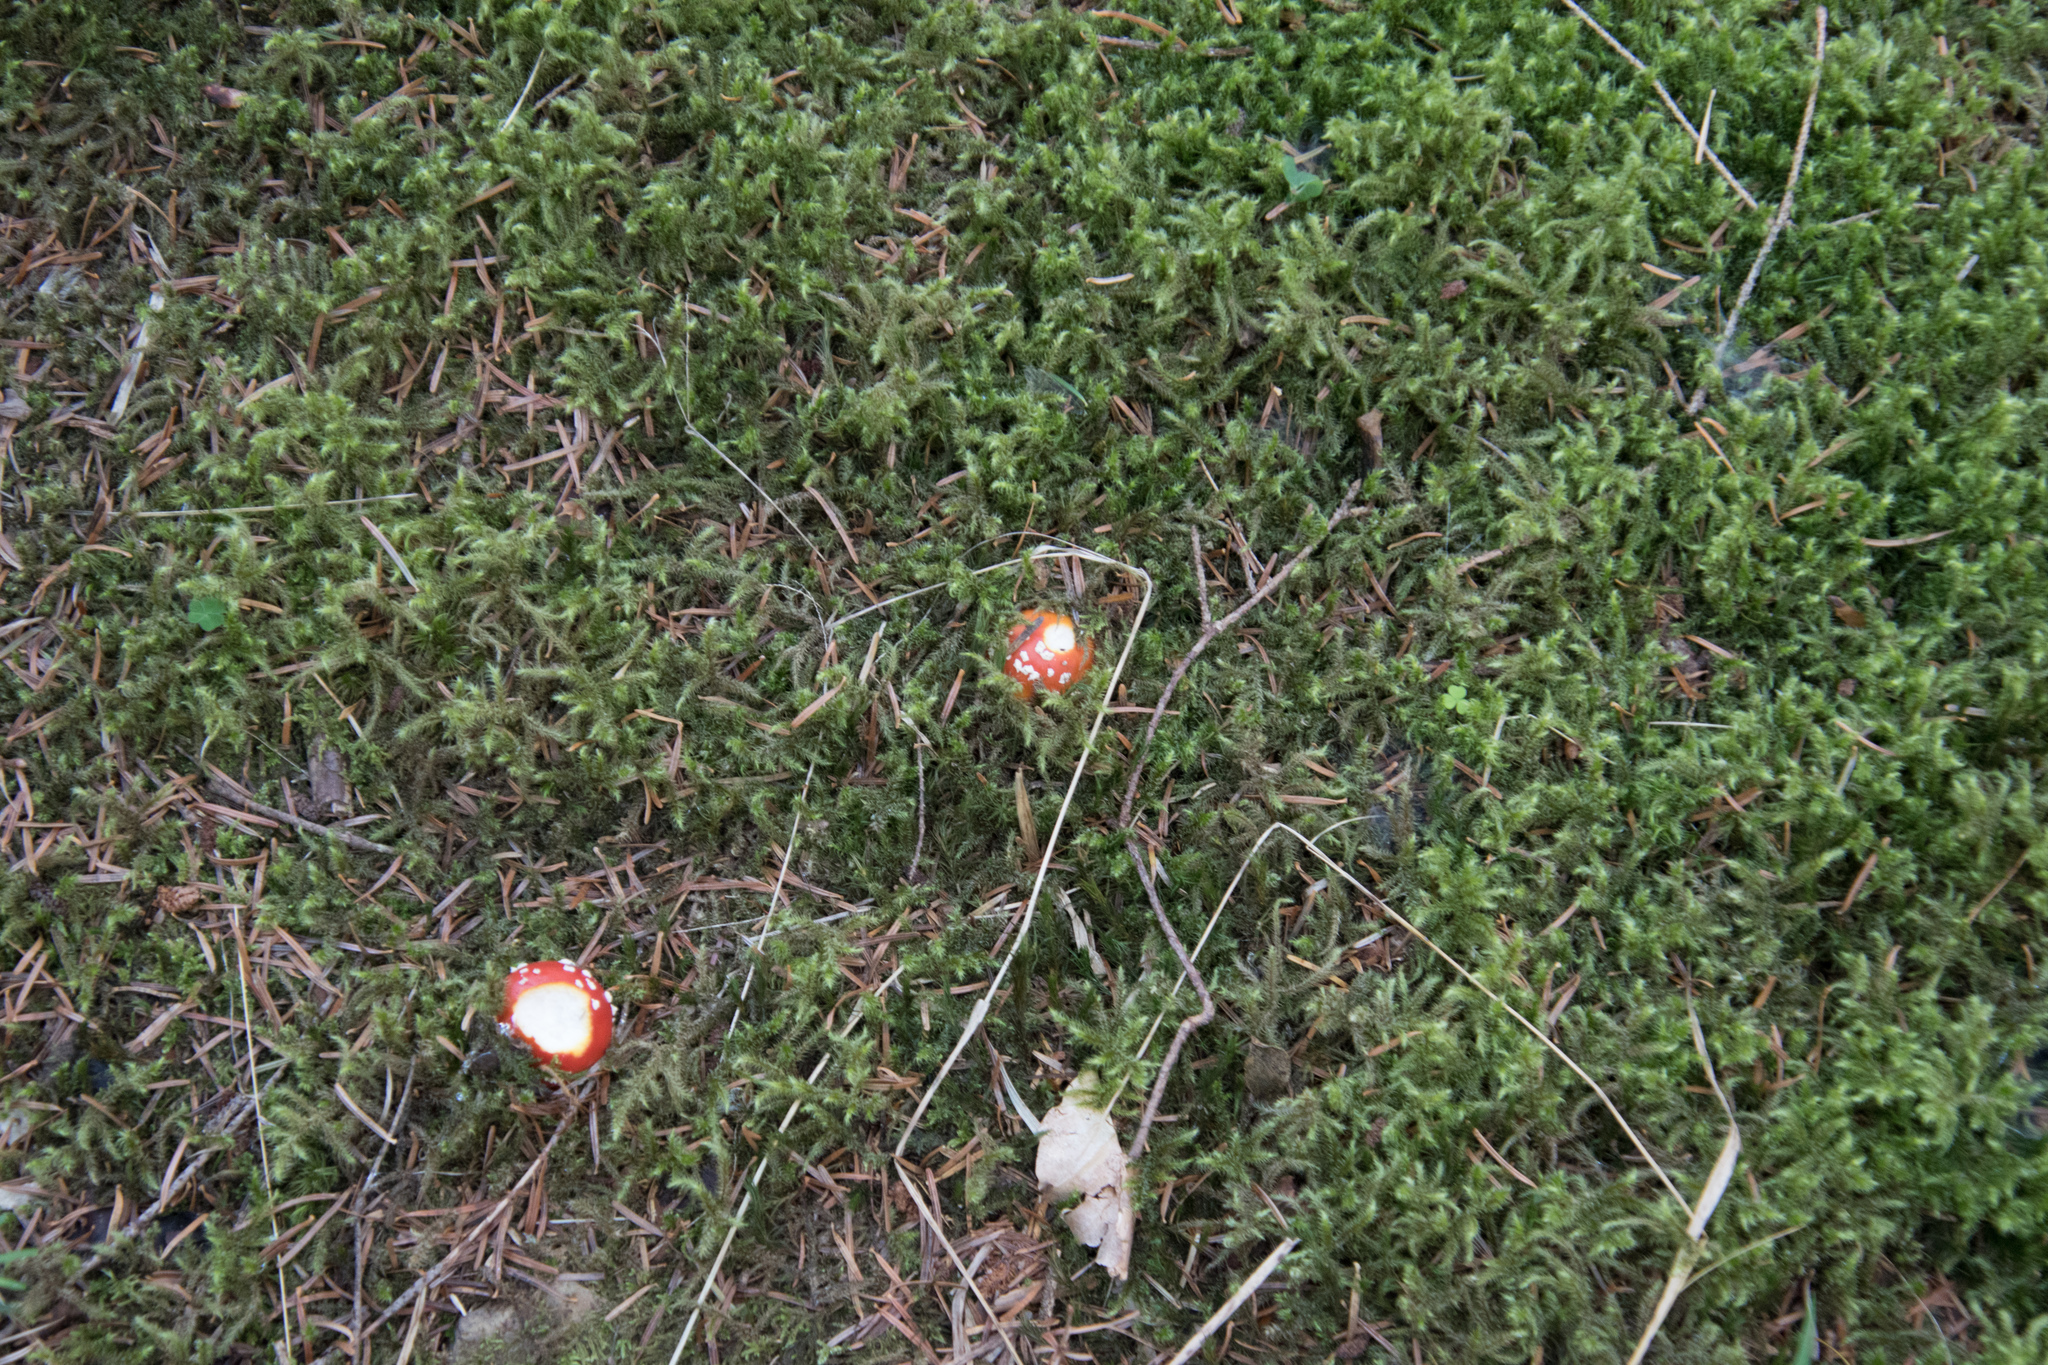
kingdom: Fungi
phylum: Basidiomycota
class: Agaricomycetes
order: Agaricales
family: Amanitaceae
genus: Amanita
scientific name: Amanita muscaria
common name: Fly agaric
